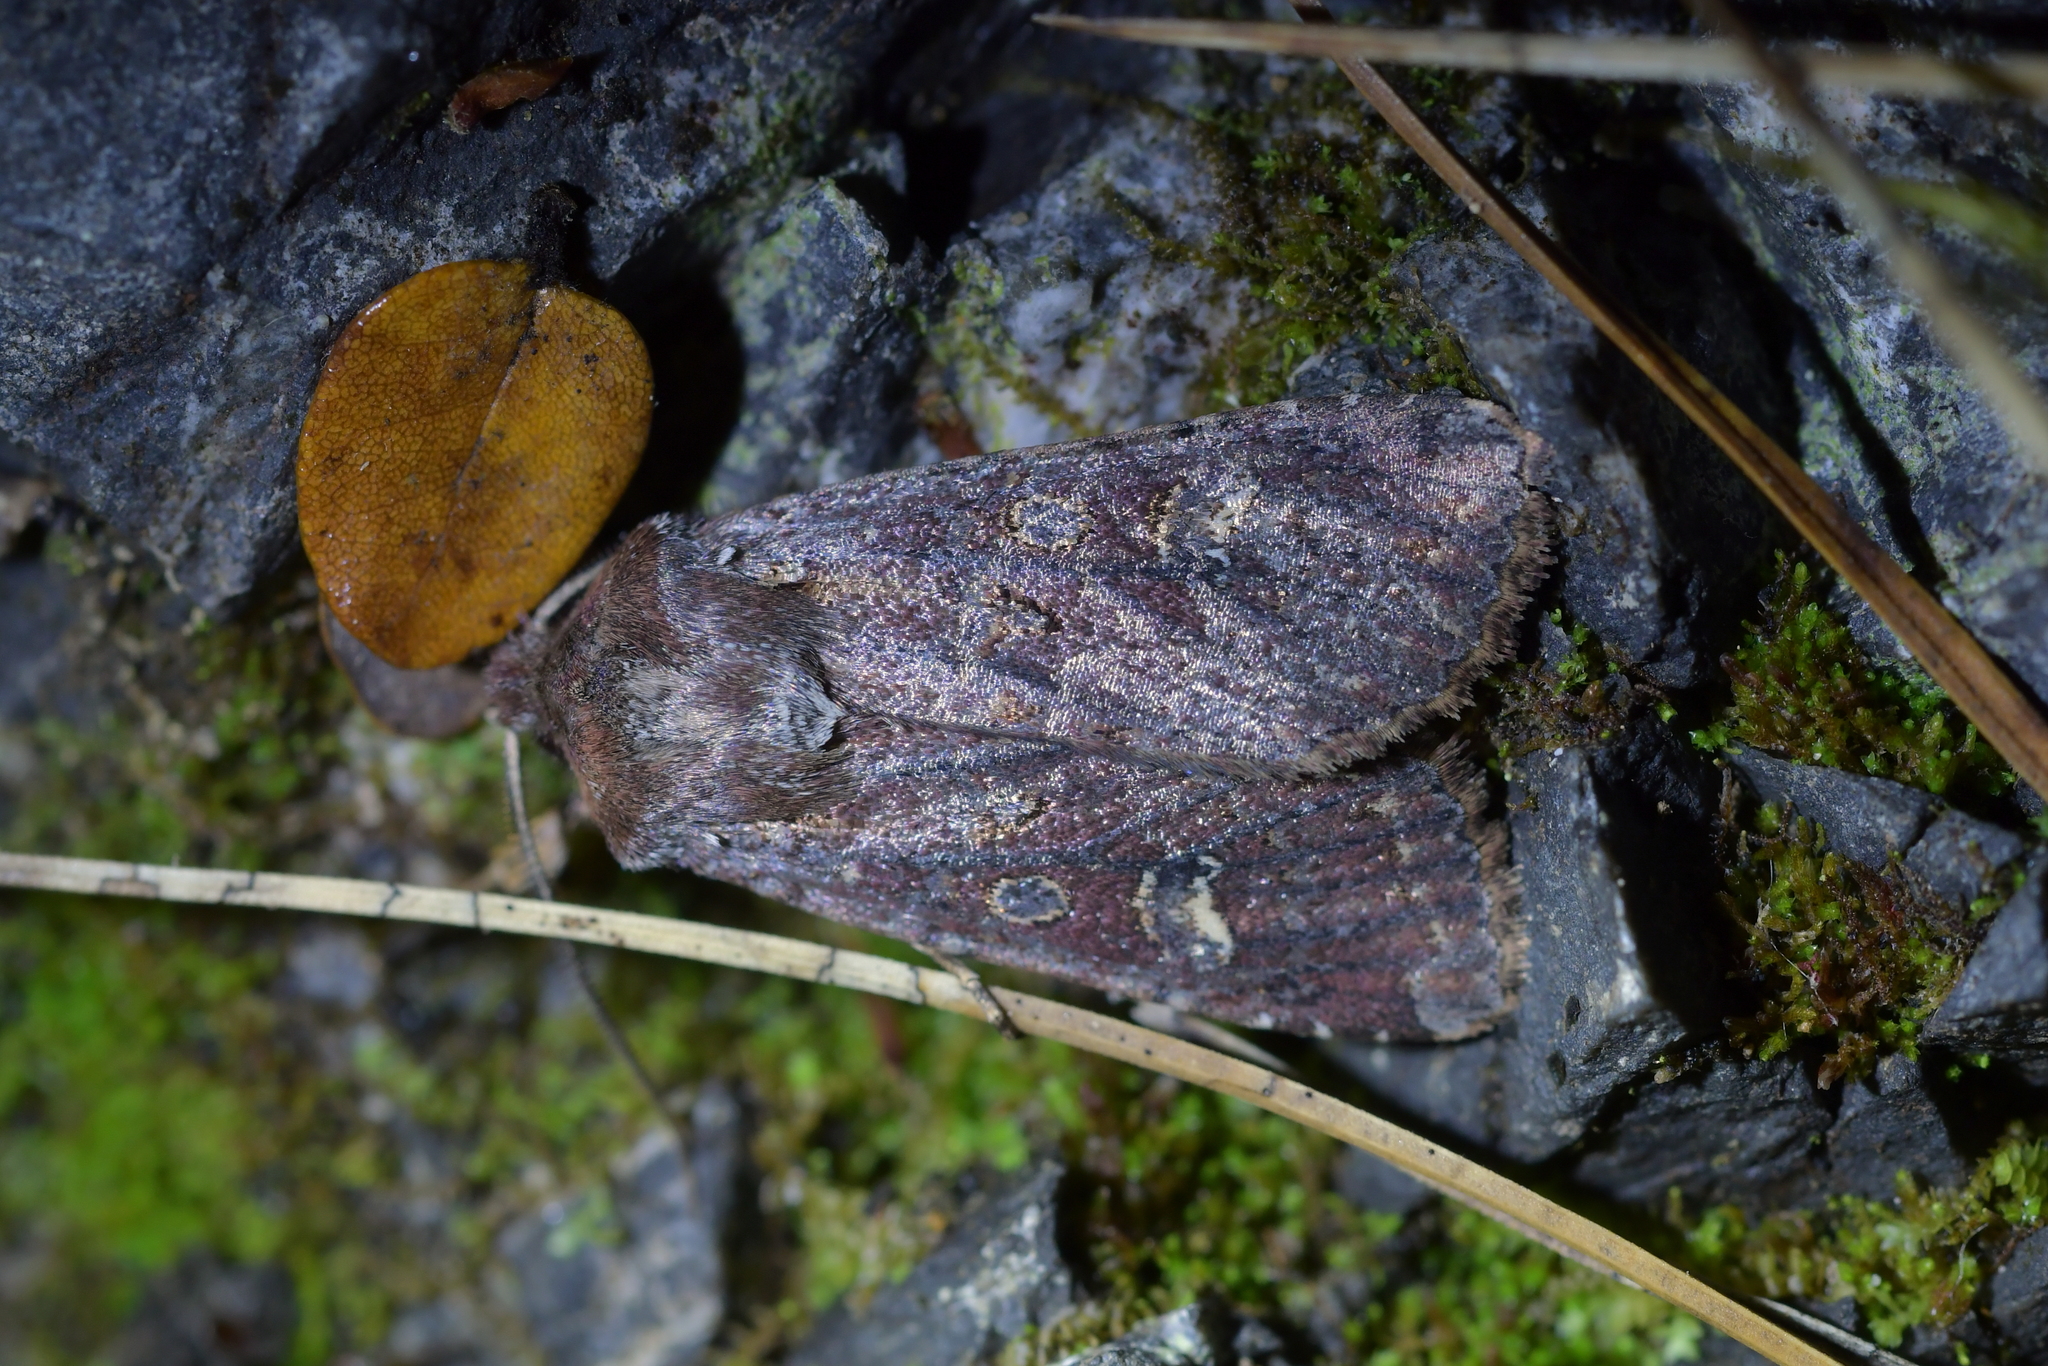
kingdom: Animalia
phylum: Arthropoda
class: Insecta
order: Lepidoptera
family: Noctuidae
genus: Ichneutica
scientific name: Ichneutica agorastis
